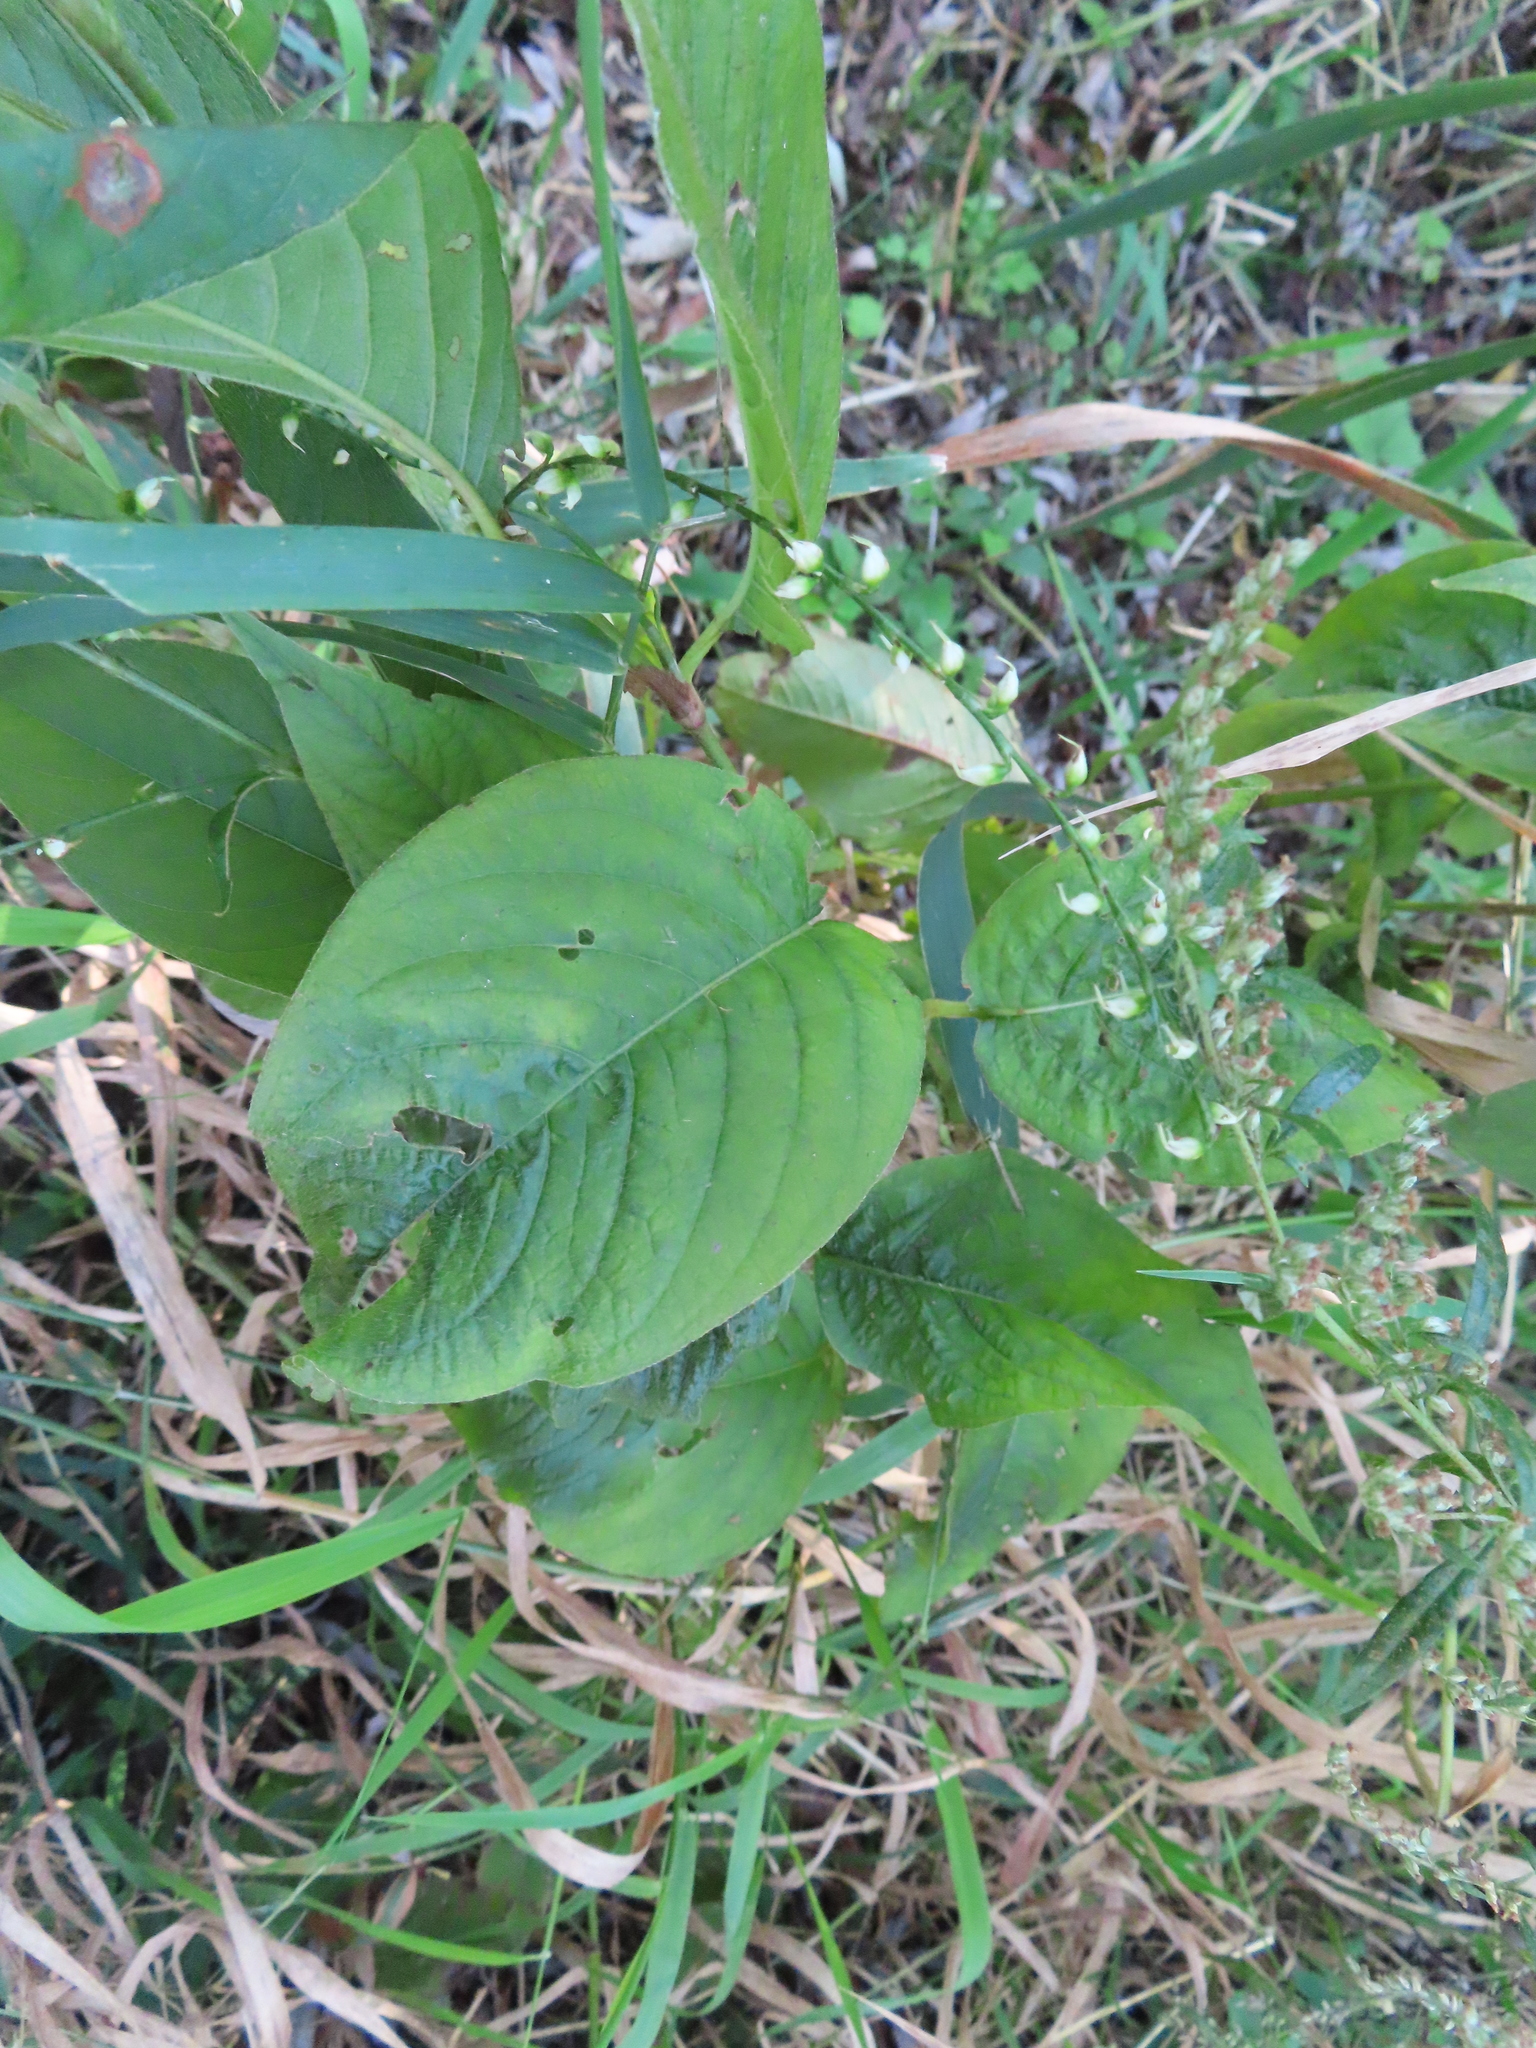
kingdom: Plantae
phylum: Tracheophyta
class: Magnoliopsida
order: Caryophyllales
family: Polygonaceae
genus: Persicaria
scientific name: Persicaria virginiana
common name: Jumpseed
